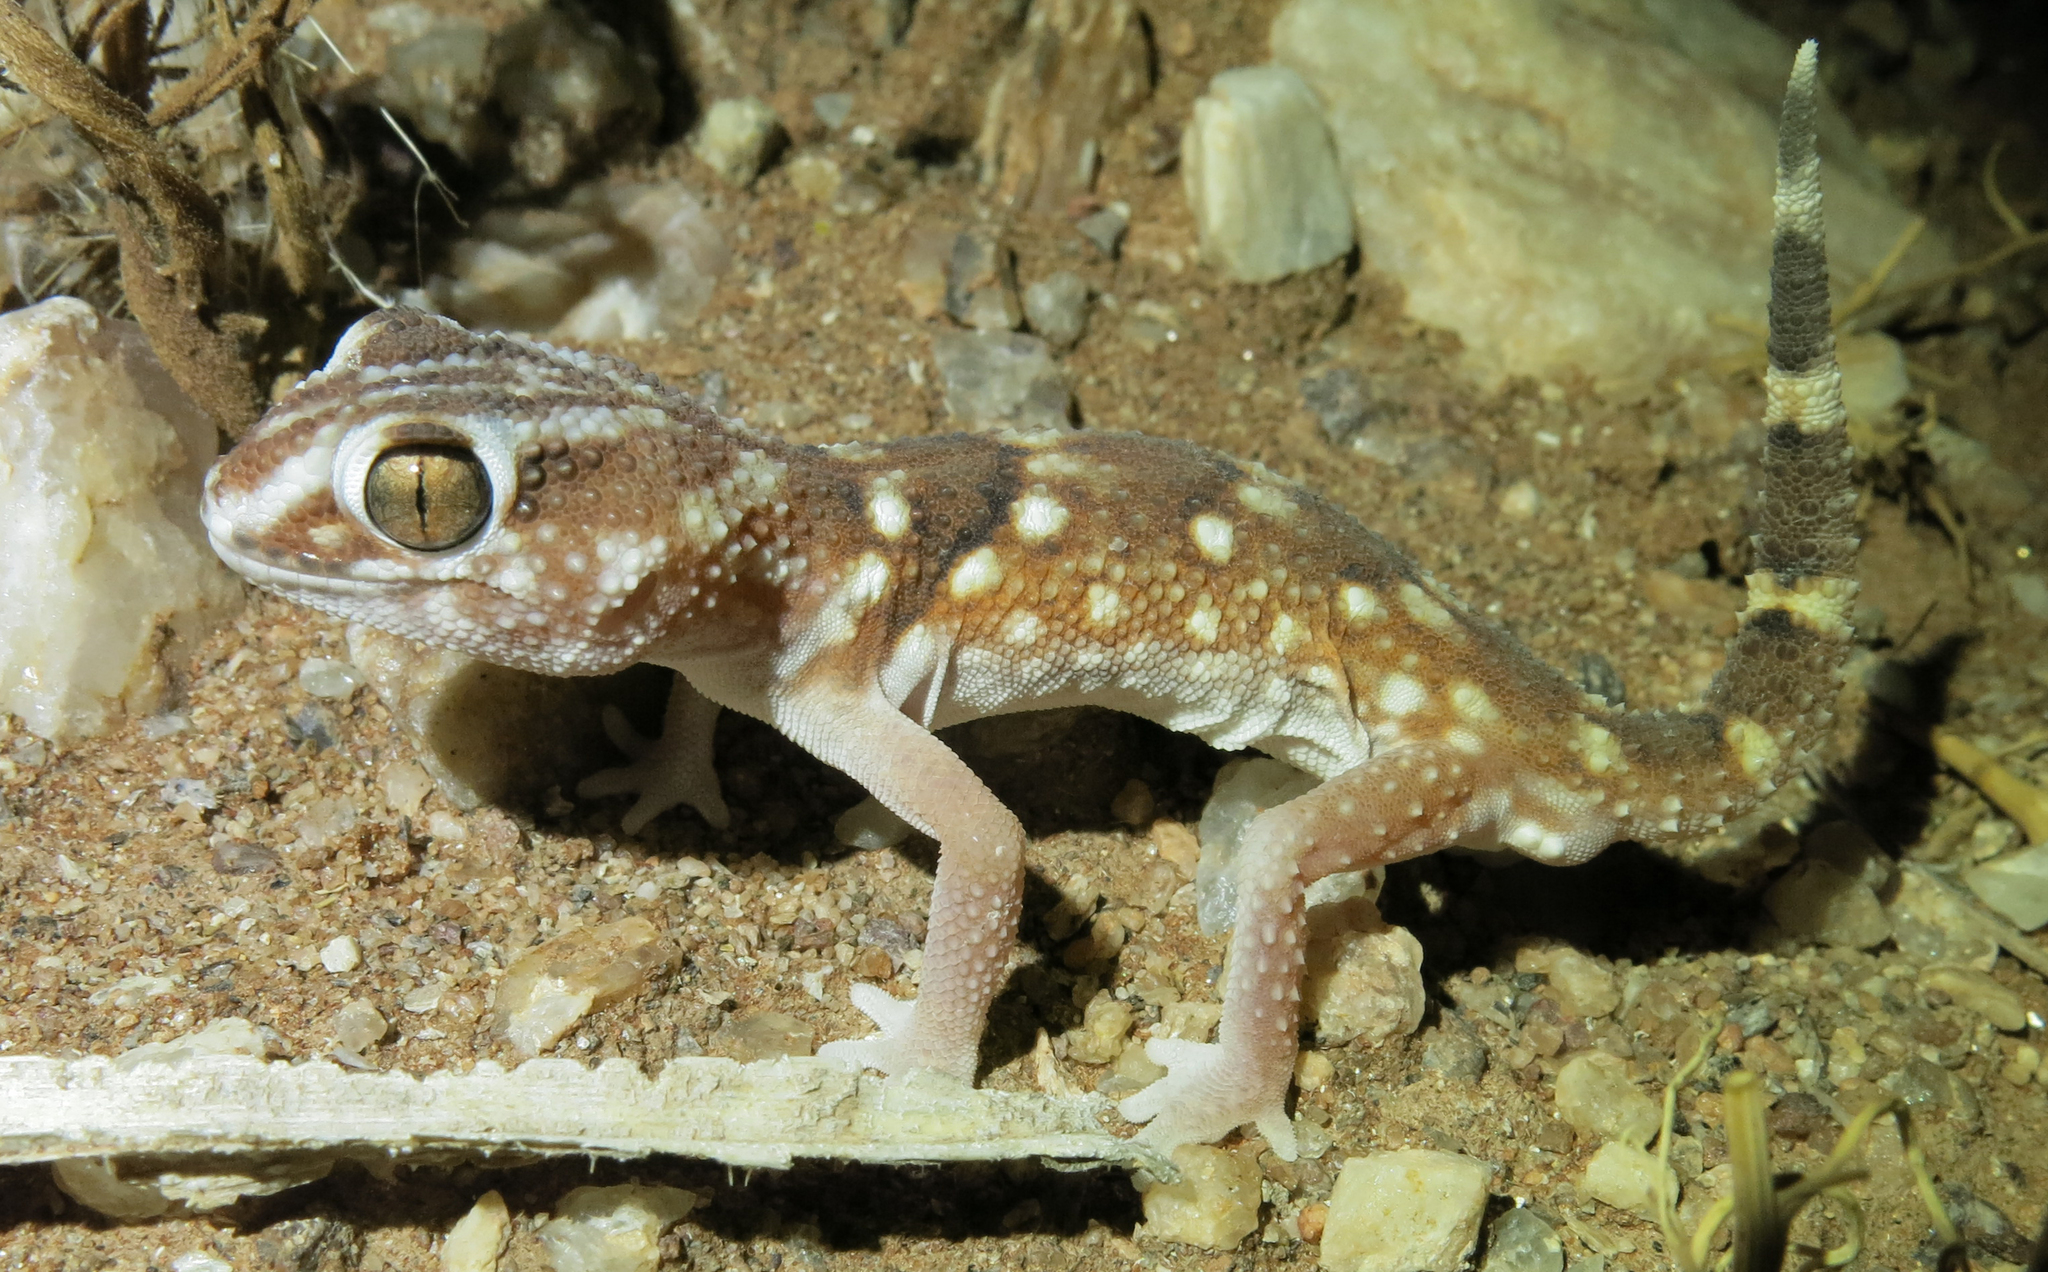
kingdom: Animalia
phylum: Chordata
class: Squamata
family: Gekkonidae
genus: Chondrodactylus
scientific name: Chondrodactylus angulifer
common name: Common giant ground gecko
